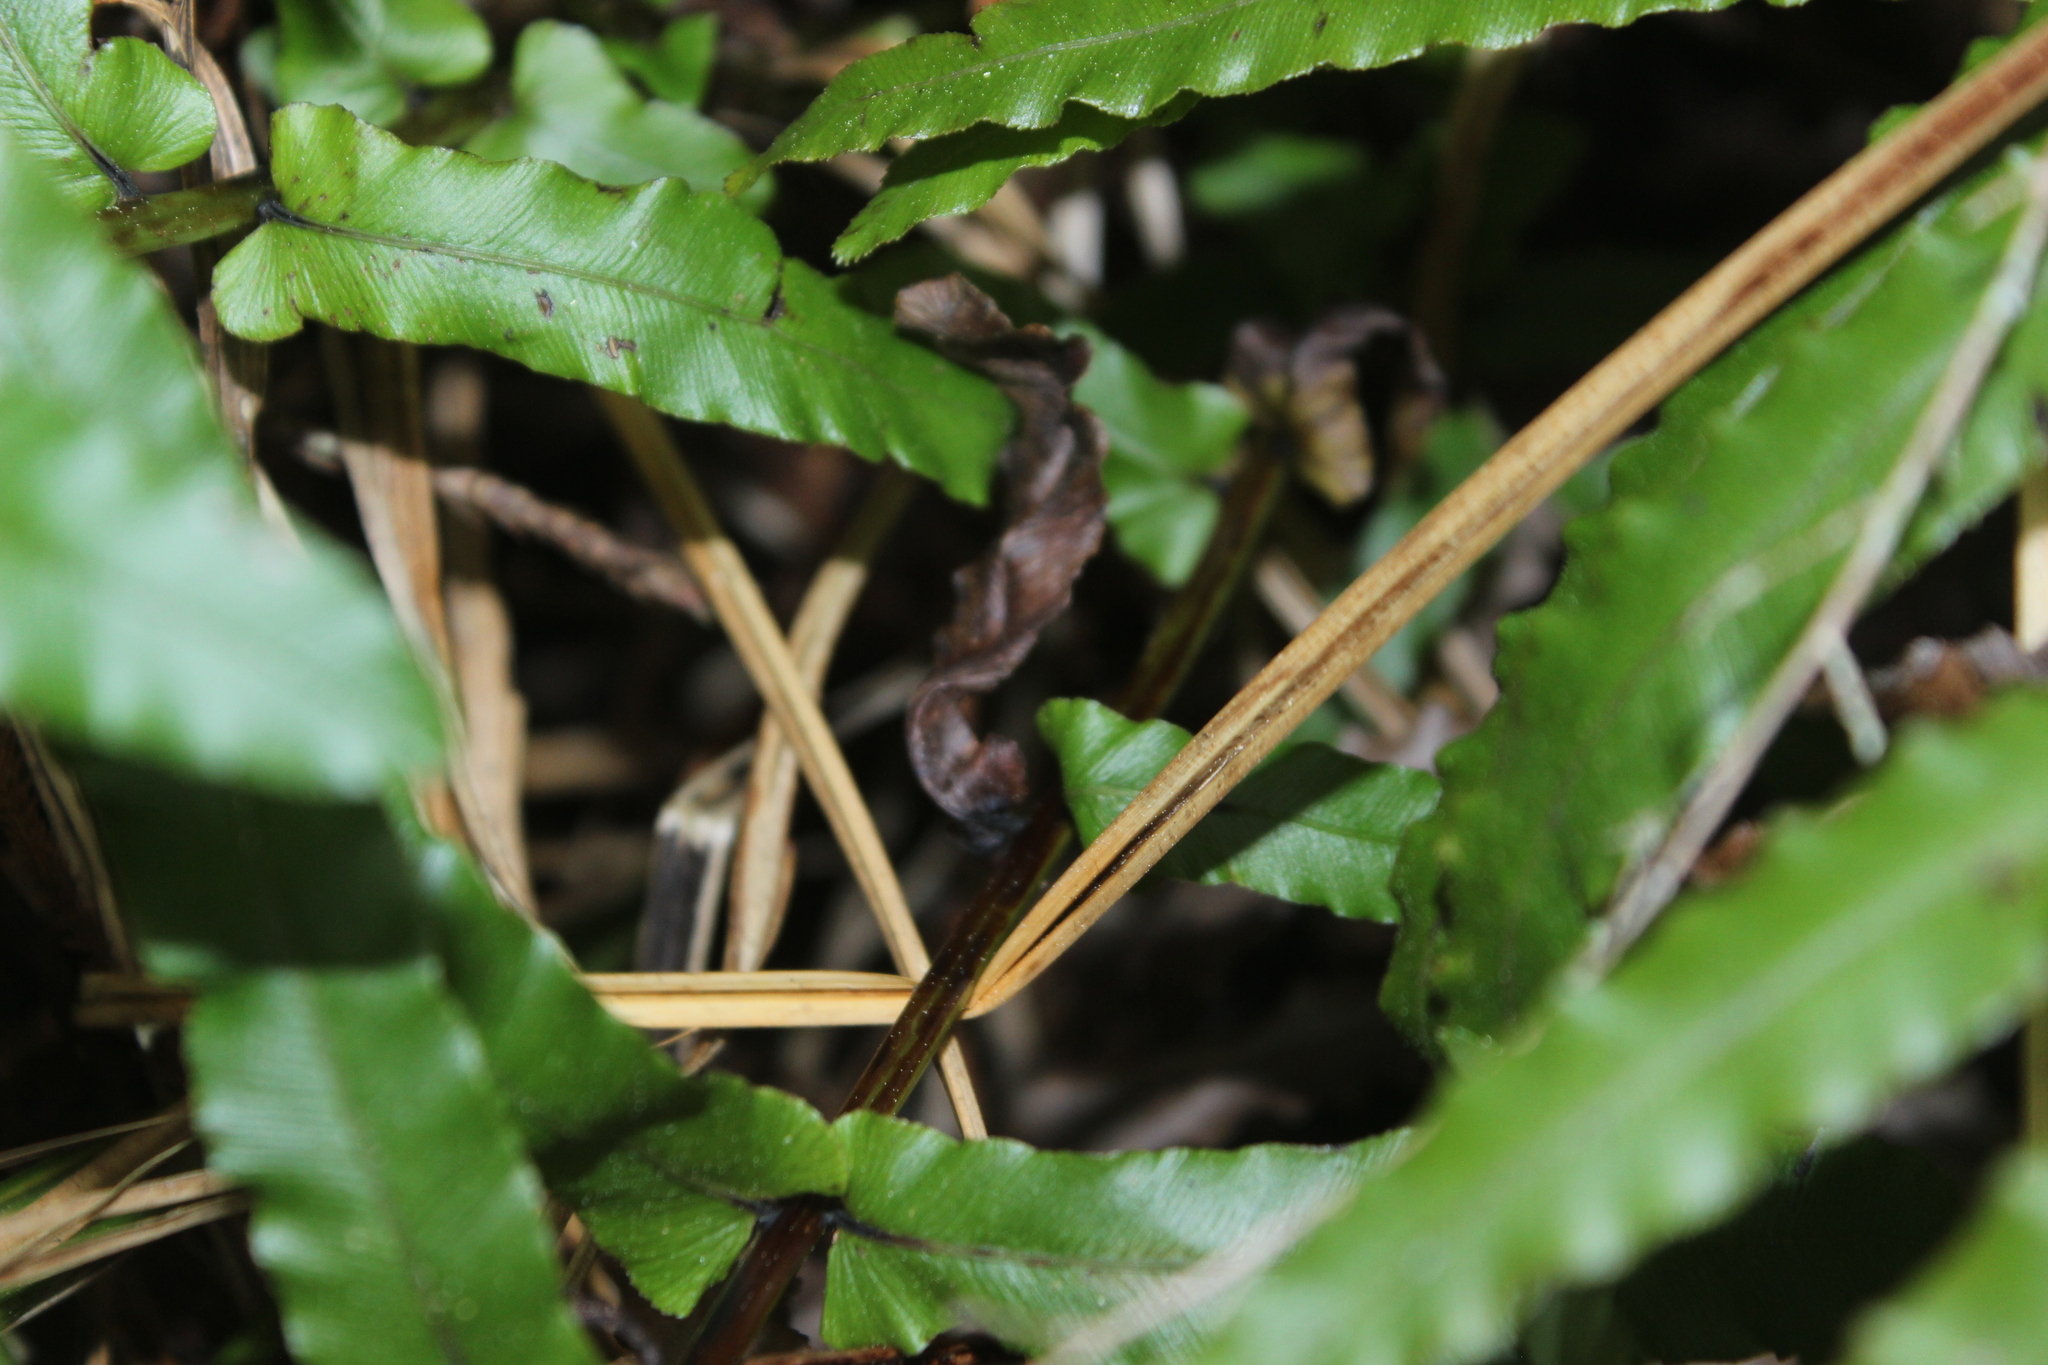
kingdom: Plantae
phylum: Tracheophyta
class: Polypodiopsida
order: Polypodiales
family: Blechnaceae
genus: Parablechnum
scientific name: Parablechnum minus
